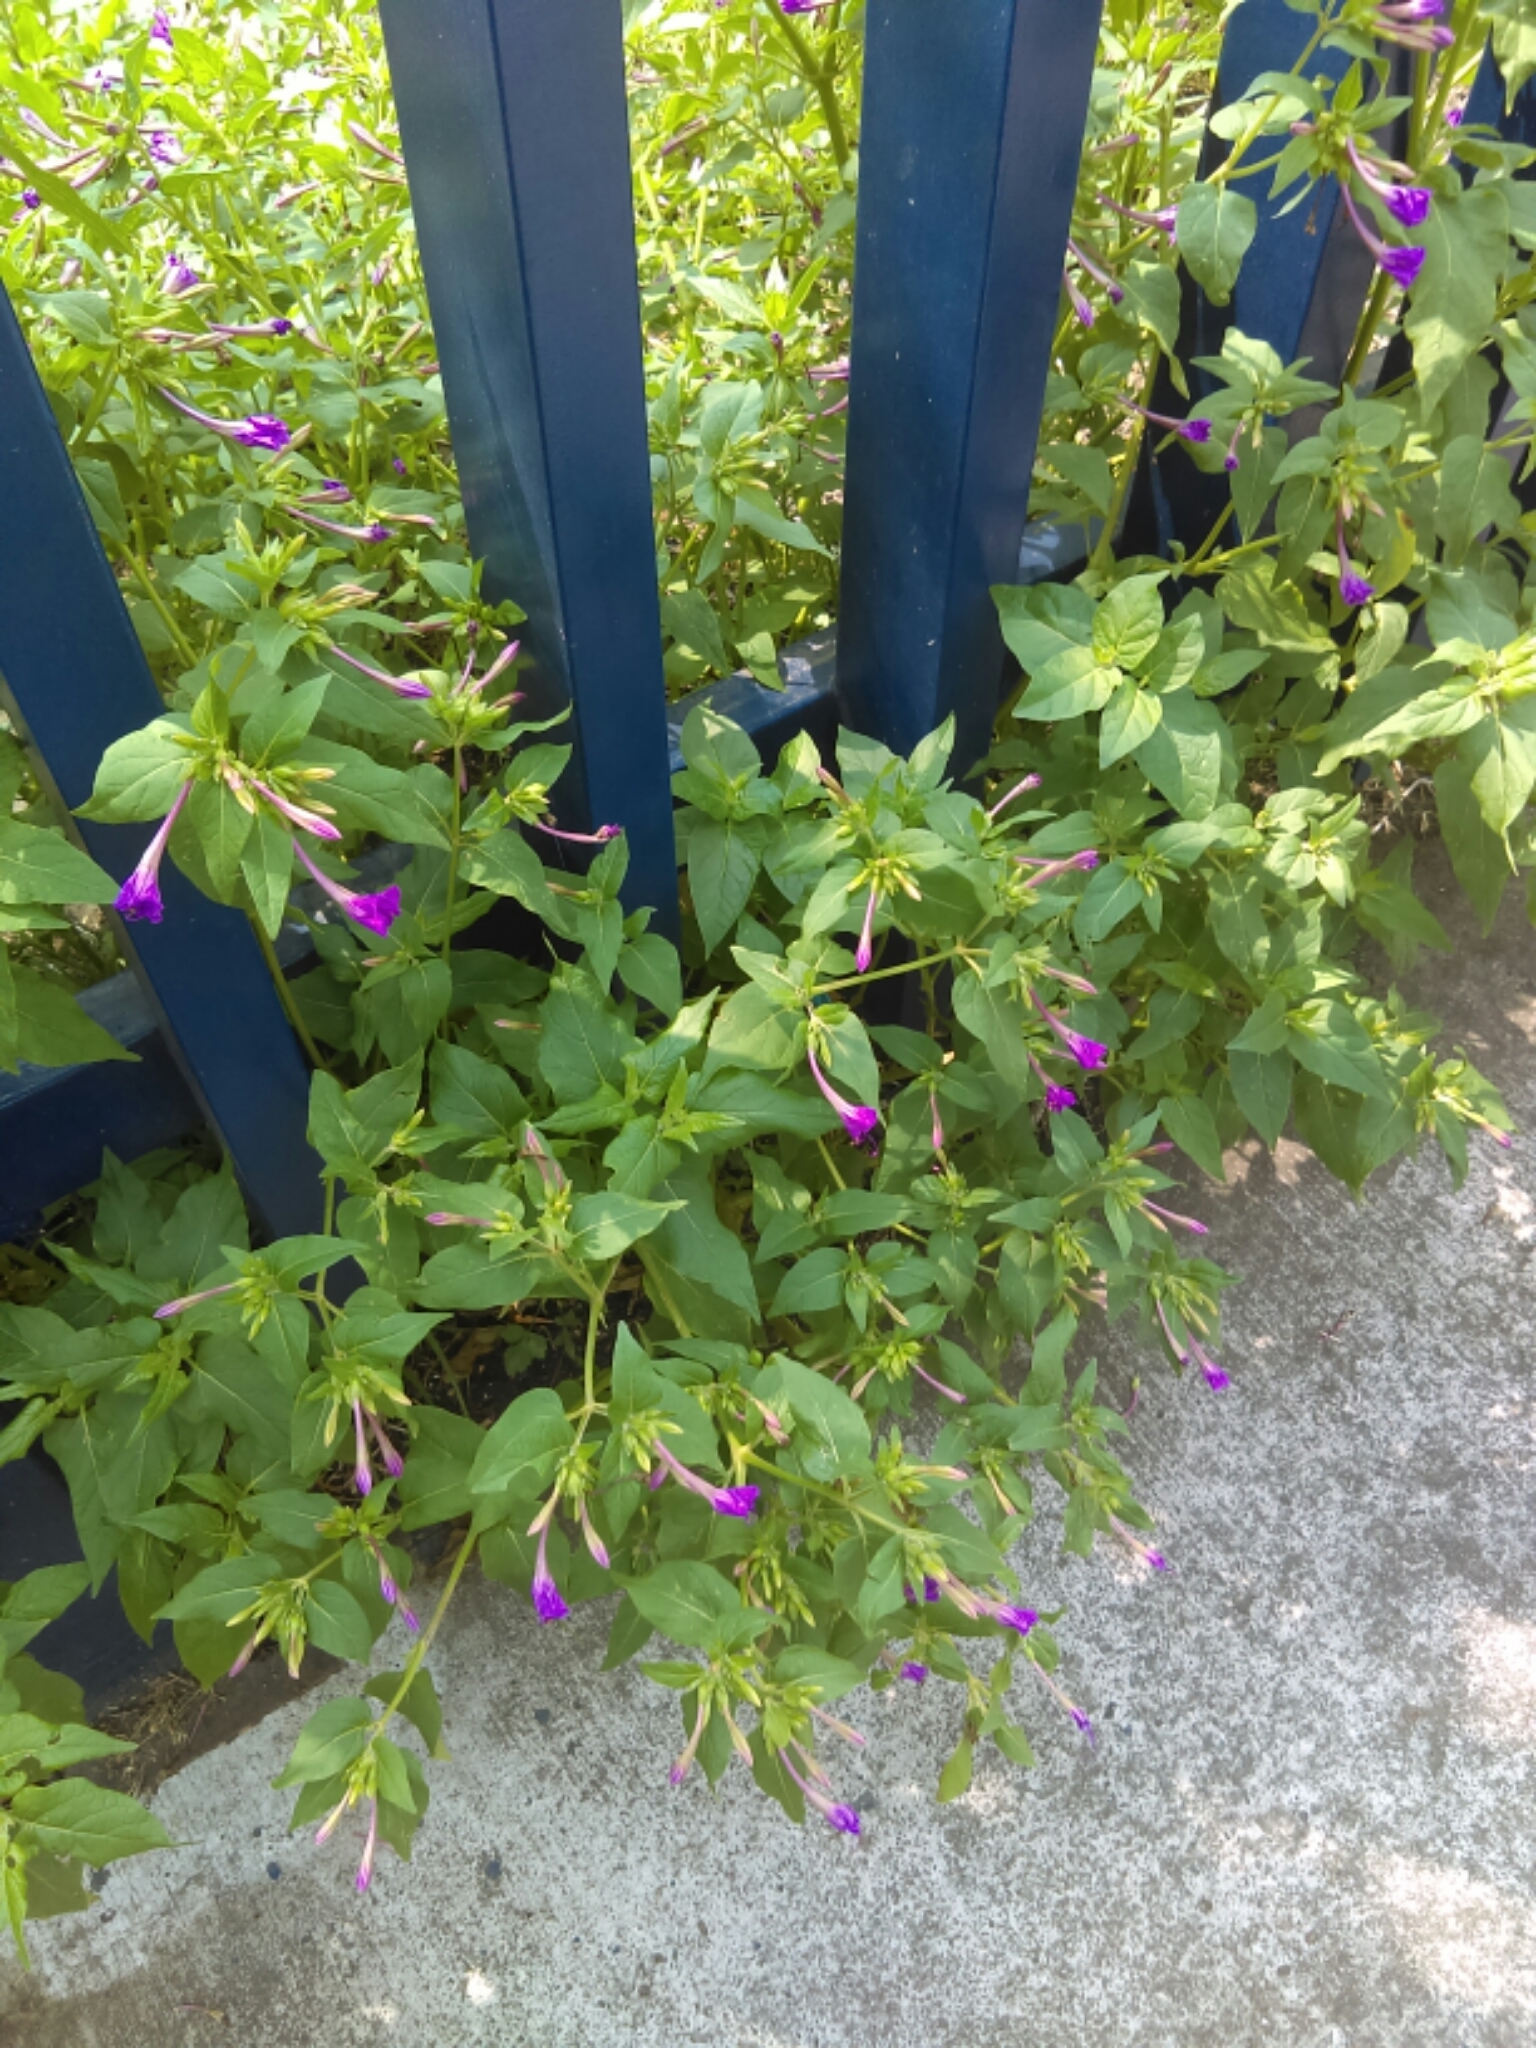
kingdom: Plantae
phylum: Tracheophyta
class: Magnoliopsida
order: Caryophyllales
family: Nyctaginaceae
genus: Mirabilis
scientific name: Mirabilis jalapa
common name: Marvel-of-peru
